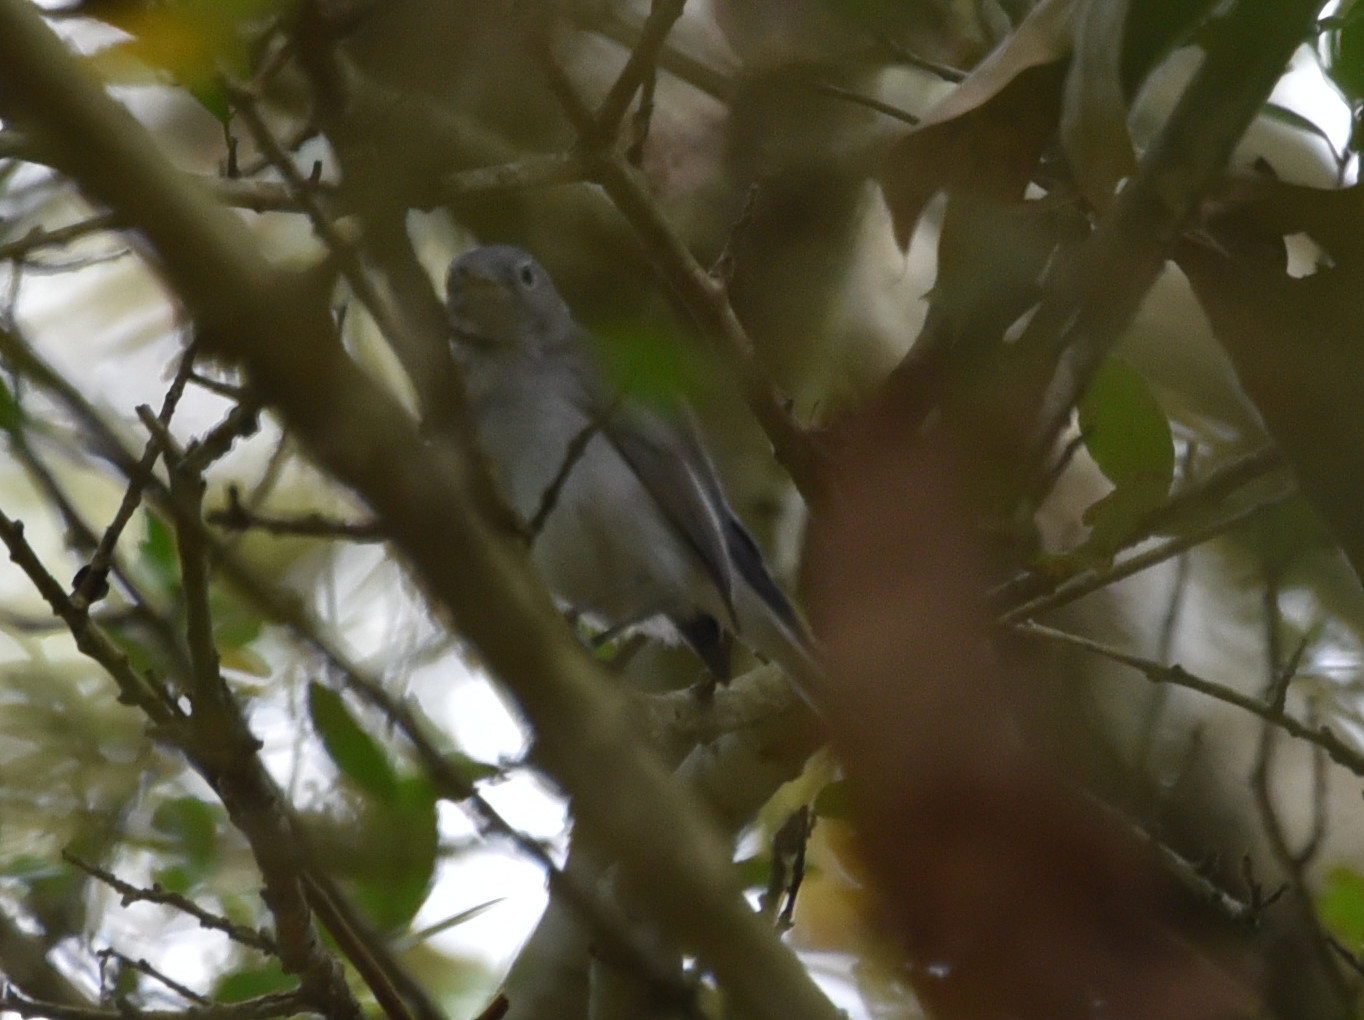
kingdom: Animalia
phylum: Chordata
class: Aves
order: Passeriformes
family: Polioptilidae
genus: Polioptila
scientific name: Polioptila caerulea
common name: Blue-gray gnatcatcher
